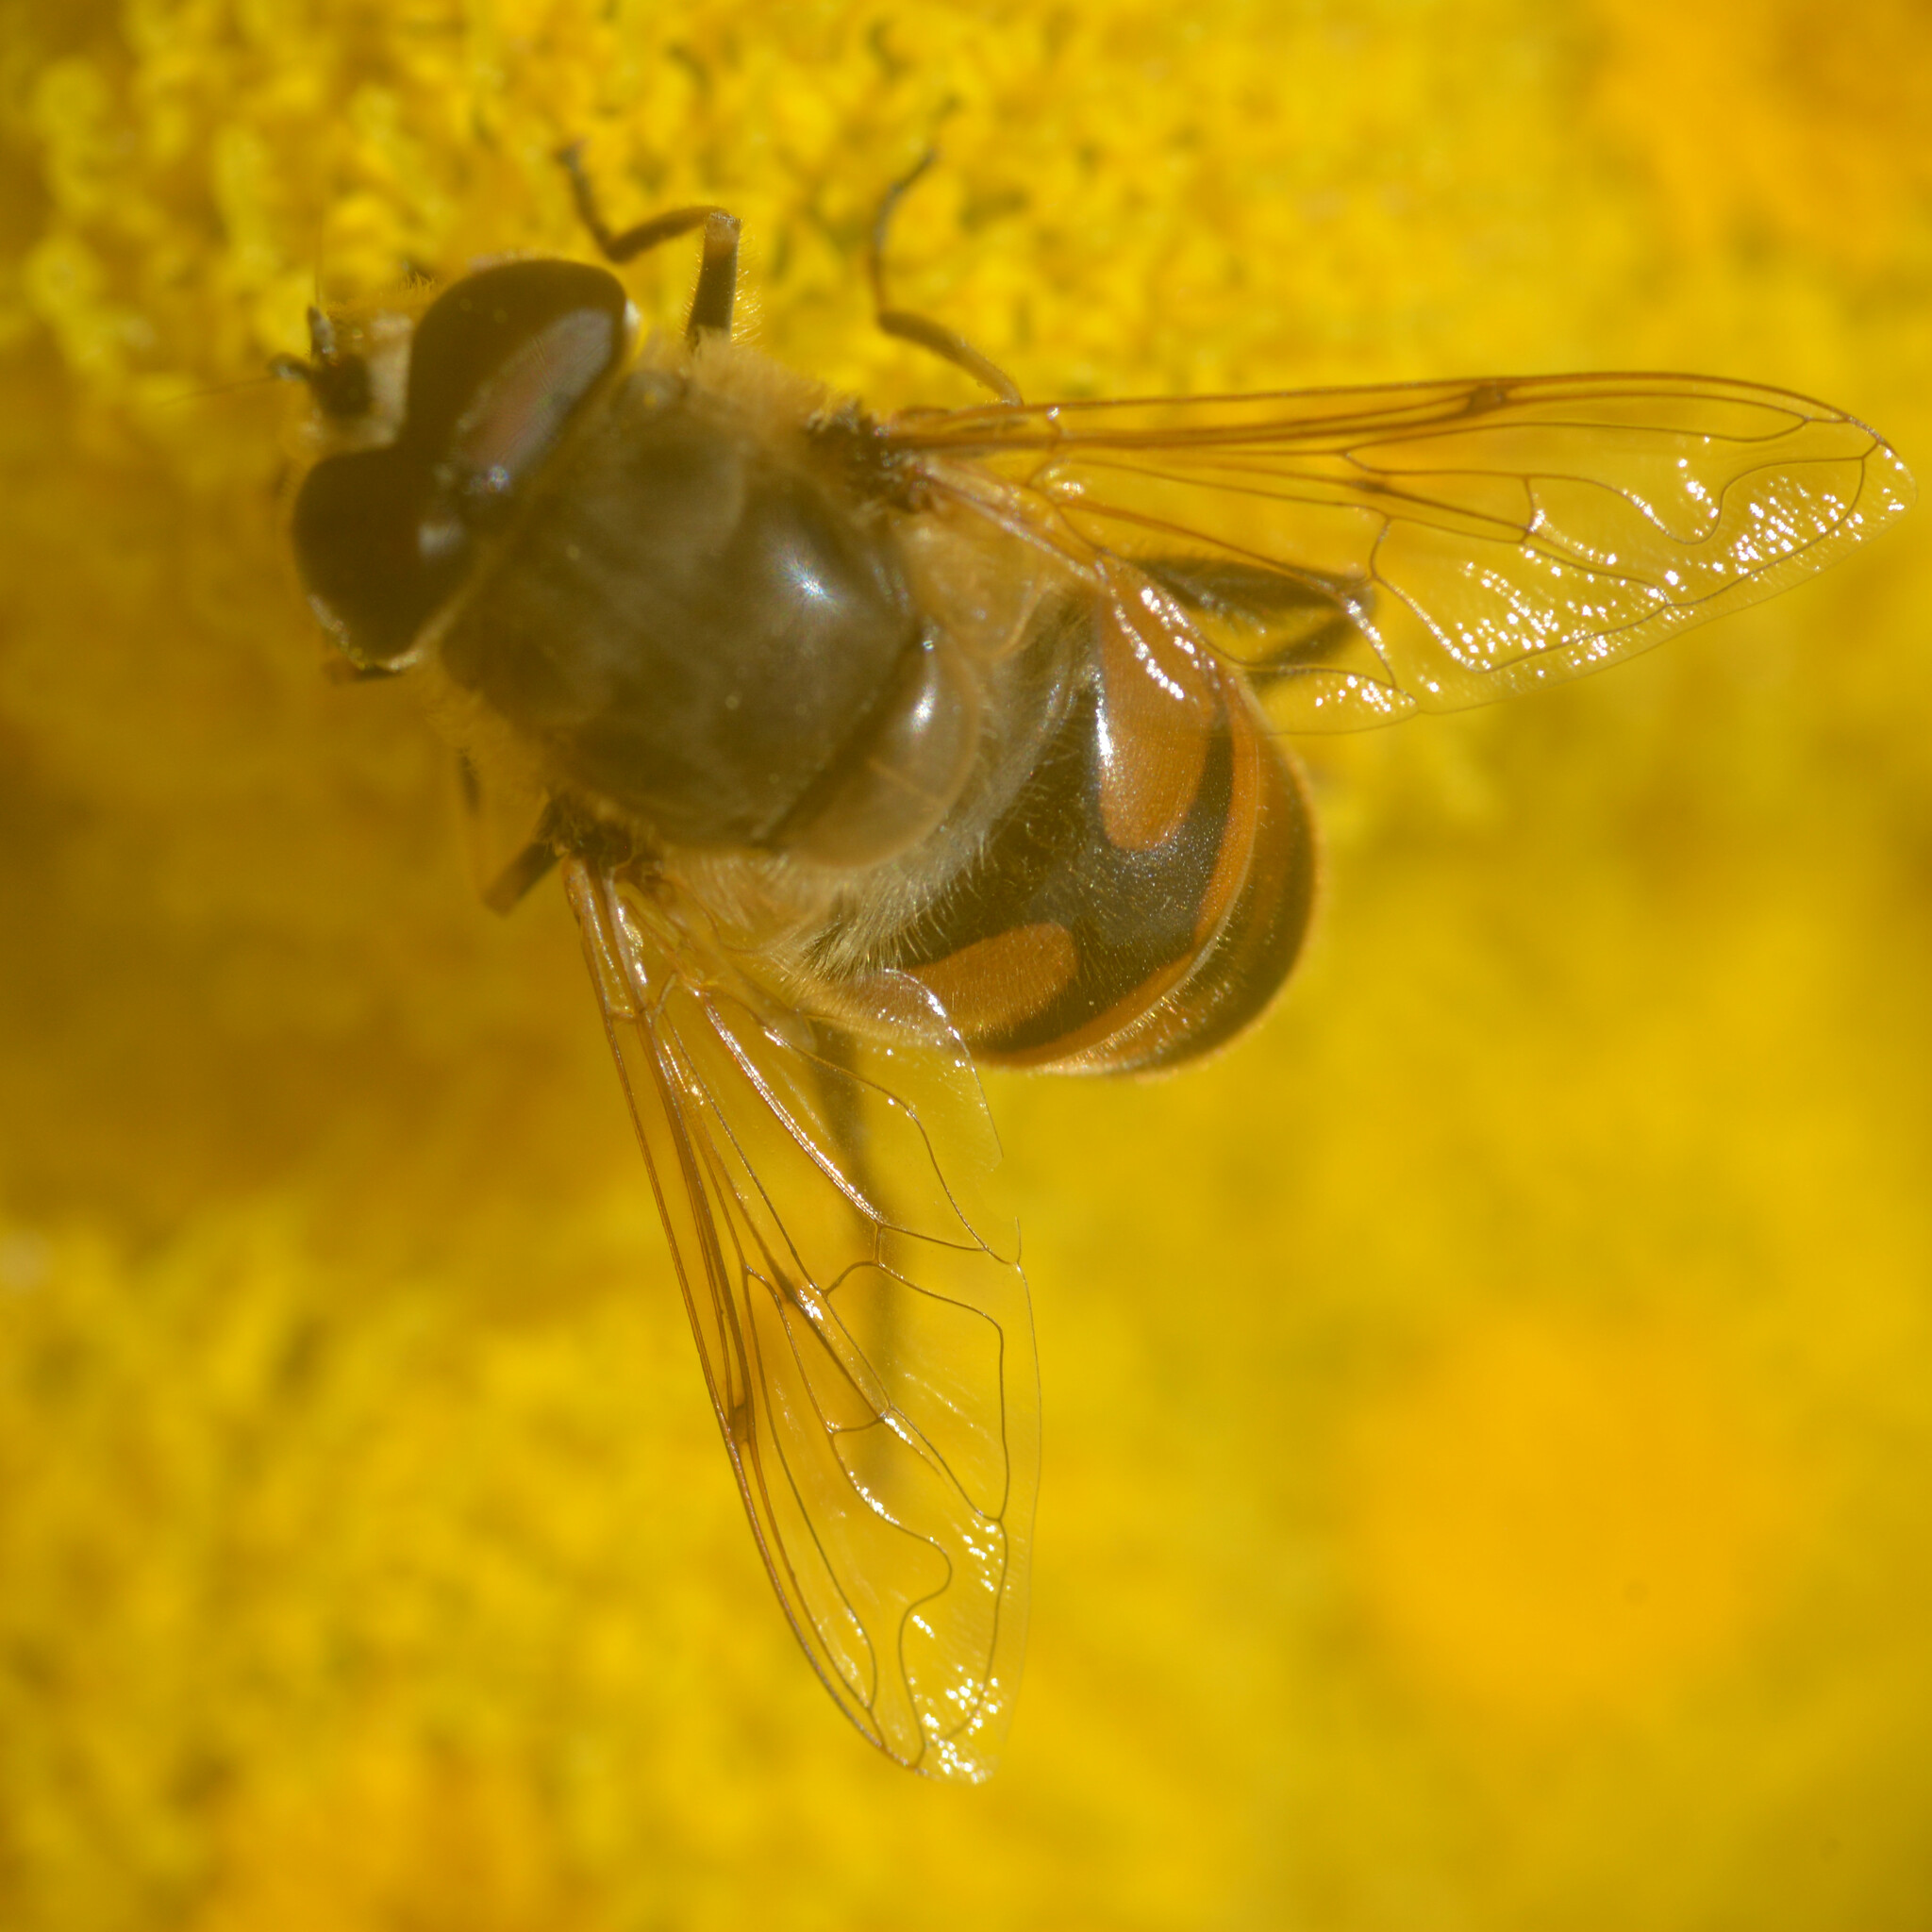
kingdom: Animalia
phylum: Arthropoda
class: Insecta
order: Diptera
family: Syrphidae
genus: Eristalis
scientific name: Eristalis tenax
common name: Drone fly
